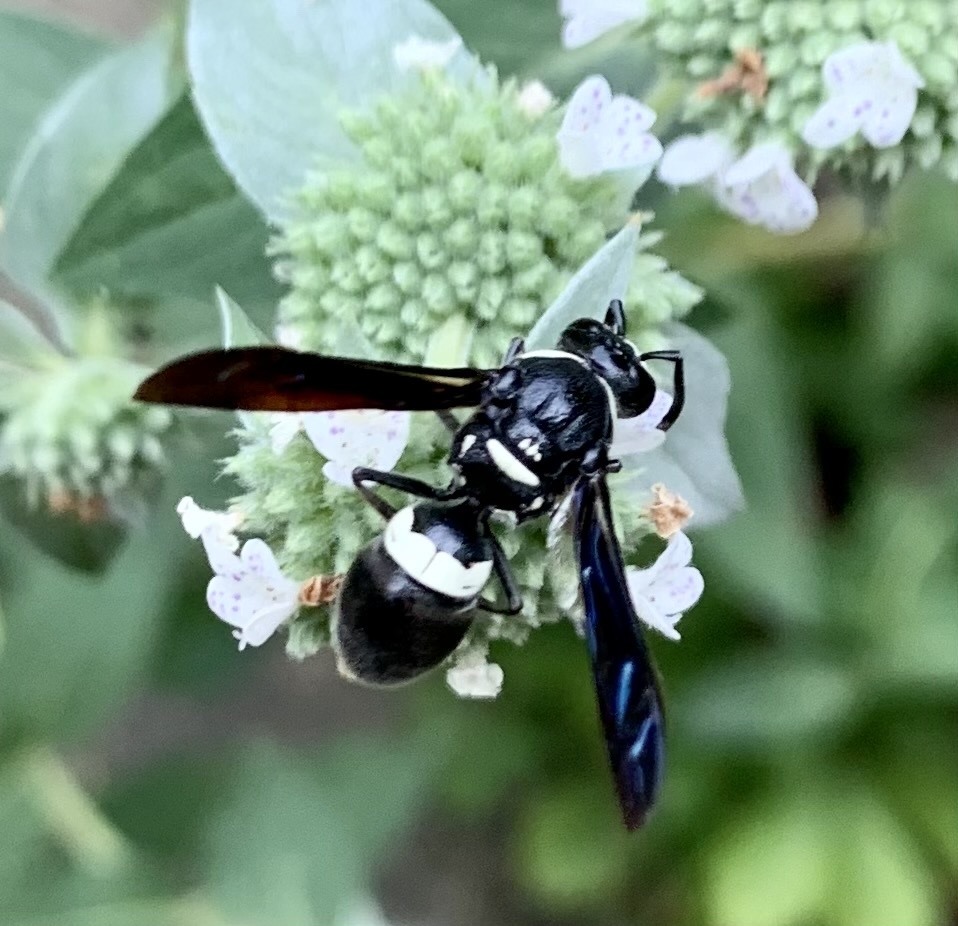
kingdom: Animalia
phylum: Arthropoda
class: Insecta
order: Hymenoptera
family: Eumenidae
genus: Monobia
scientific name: Monobia quadridens
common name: Four-toothed mason wasp
